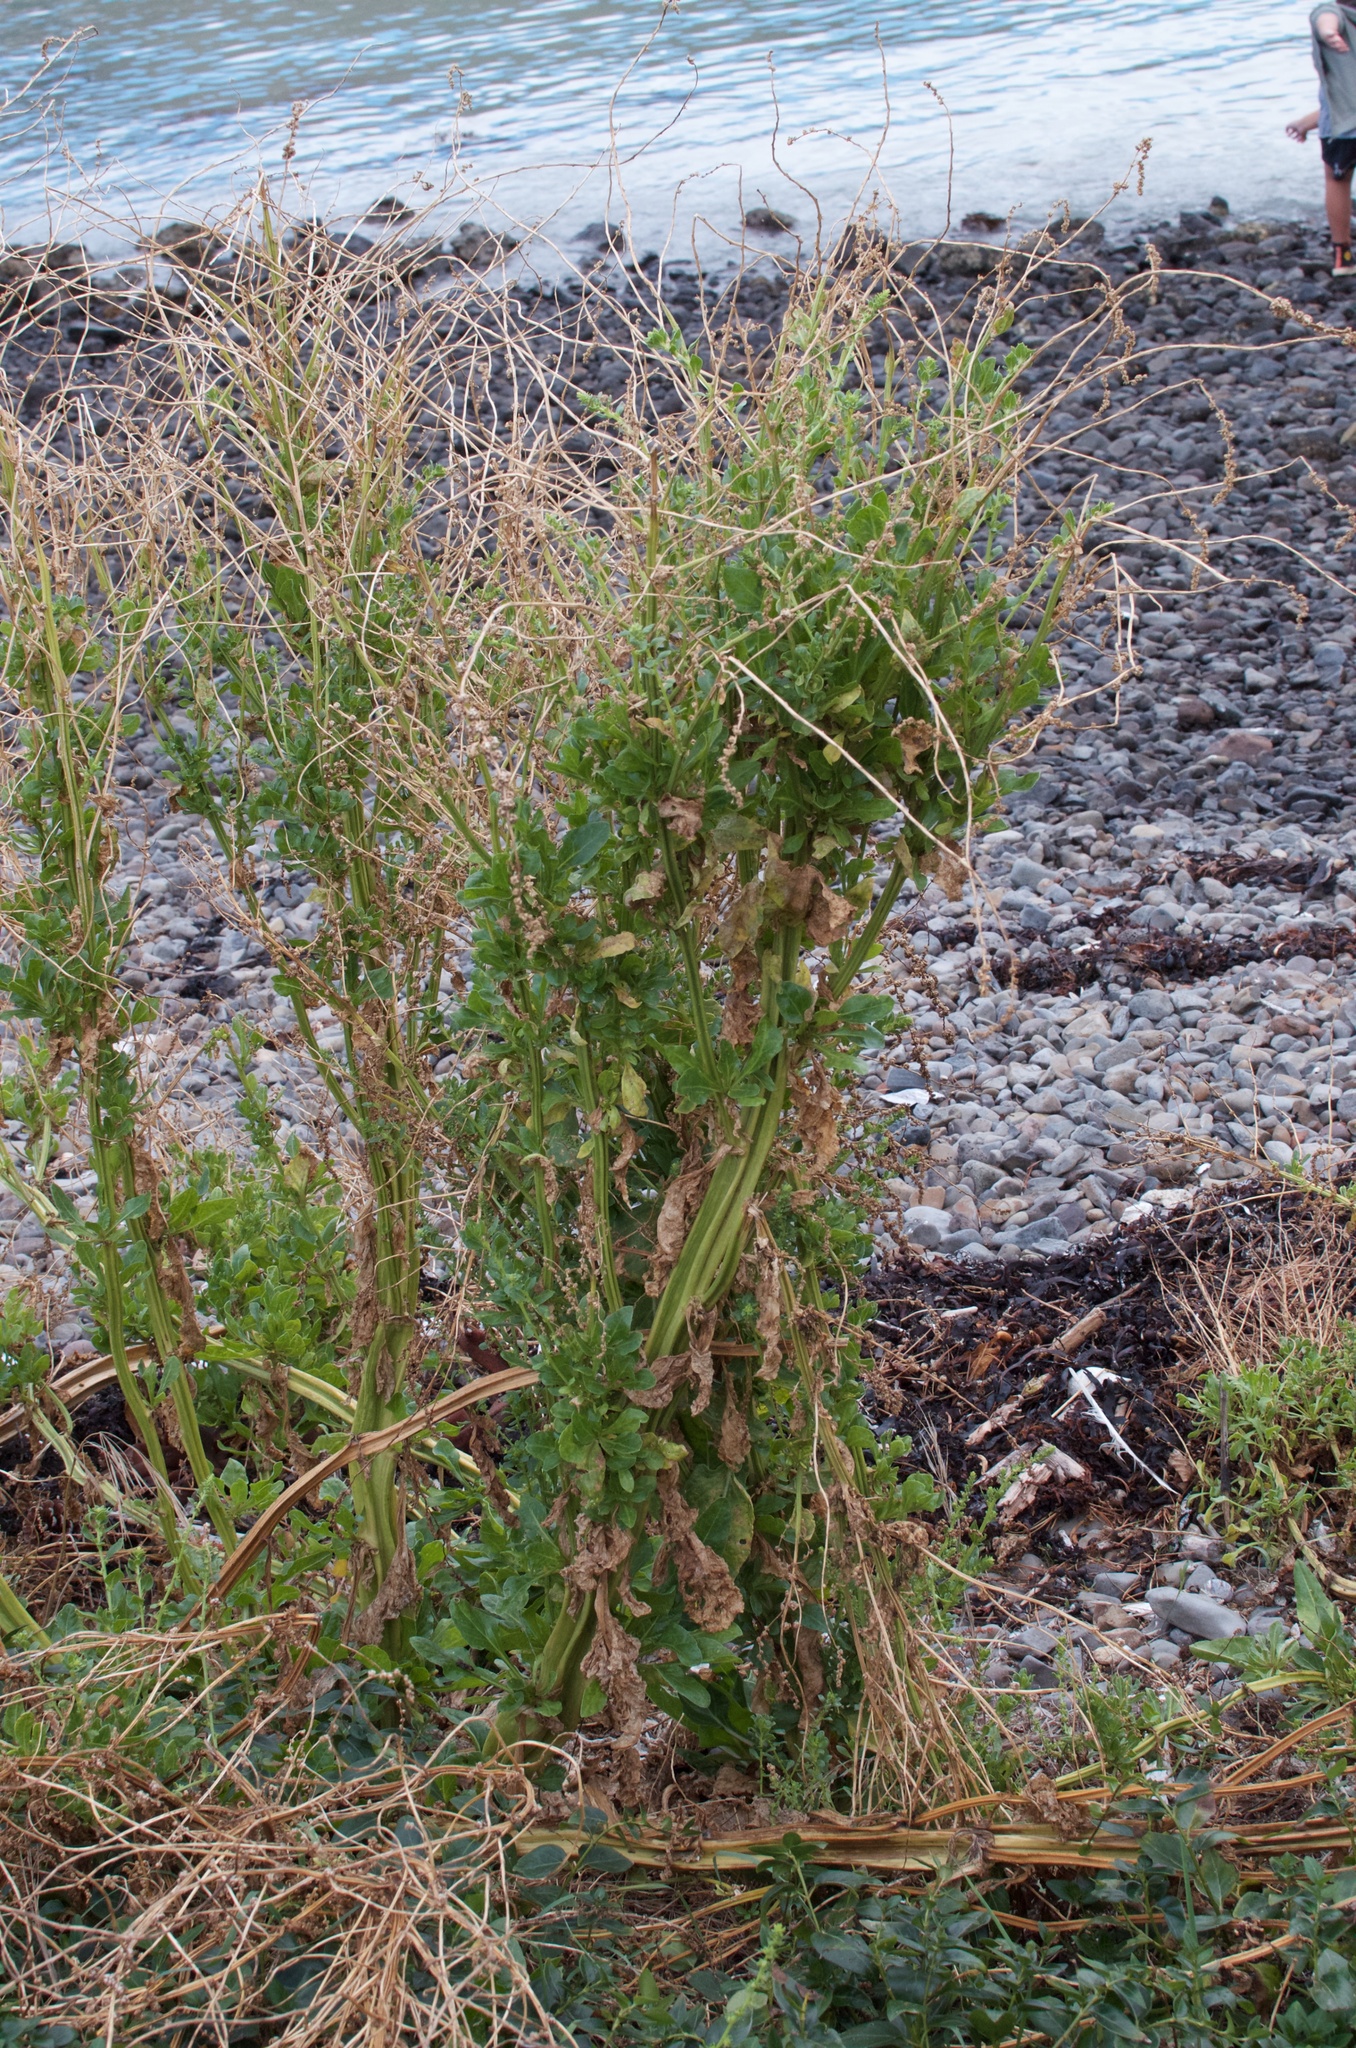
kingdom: Plantae
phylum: Tracheophyta
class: Magnoliopsida
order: Caryophyllales
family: Amaranthaceae
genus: Beta
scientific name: Beta vulgaris
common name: Beet
